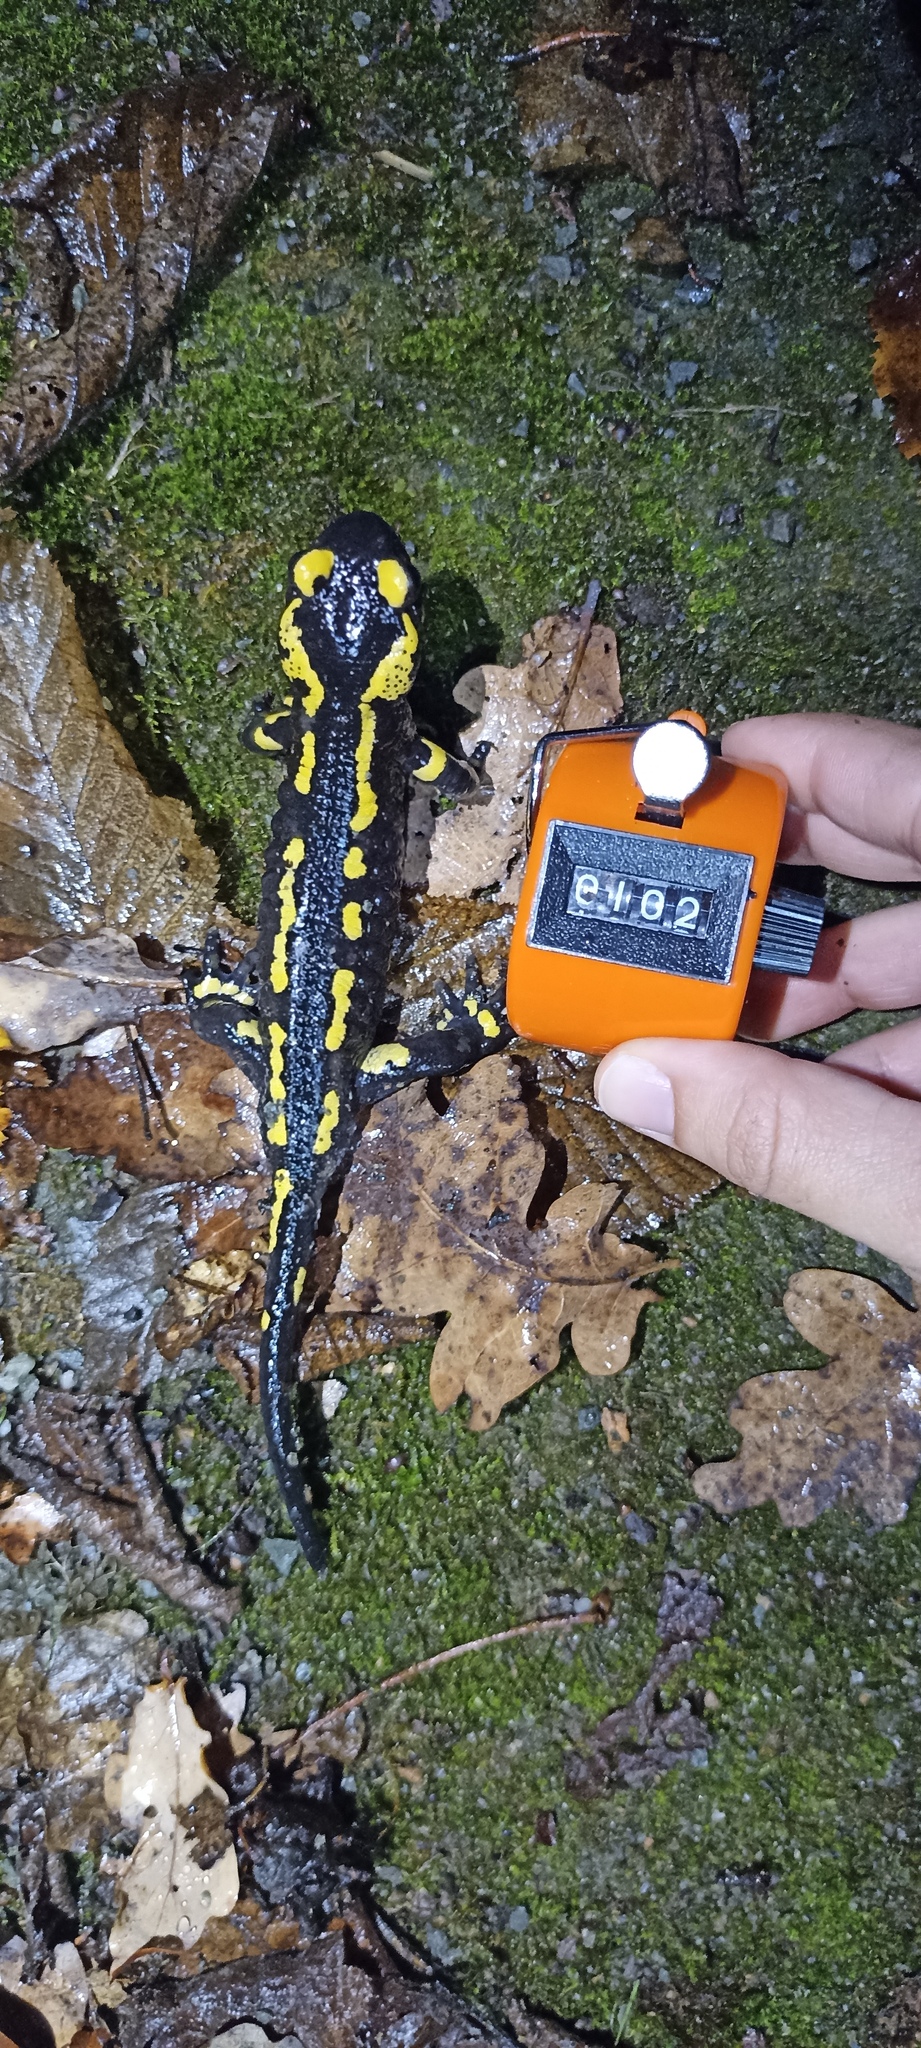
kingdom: Animalia
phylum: Chordata
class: Amphibia
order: Caudata
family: Salamandridae
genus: Salamandra
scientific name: Salamandra salamandra
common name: Fire salamander
